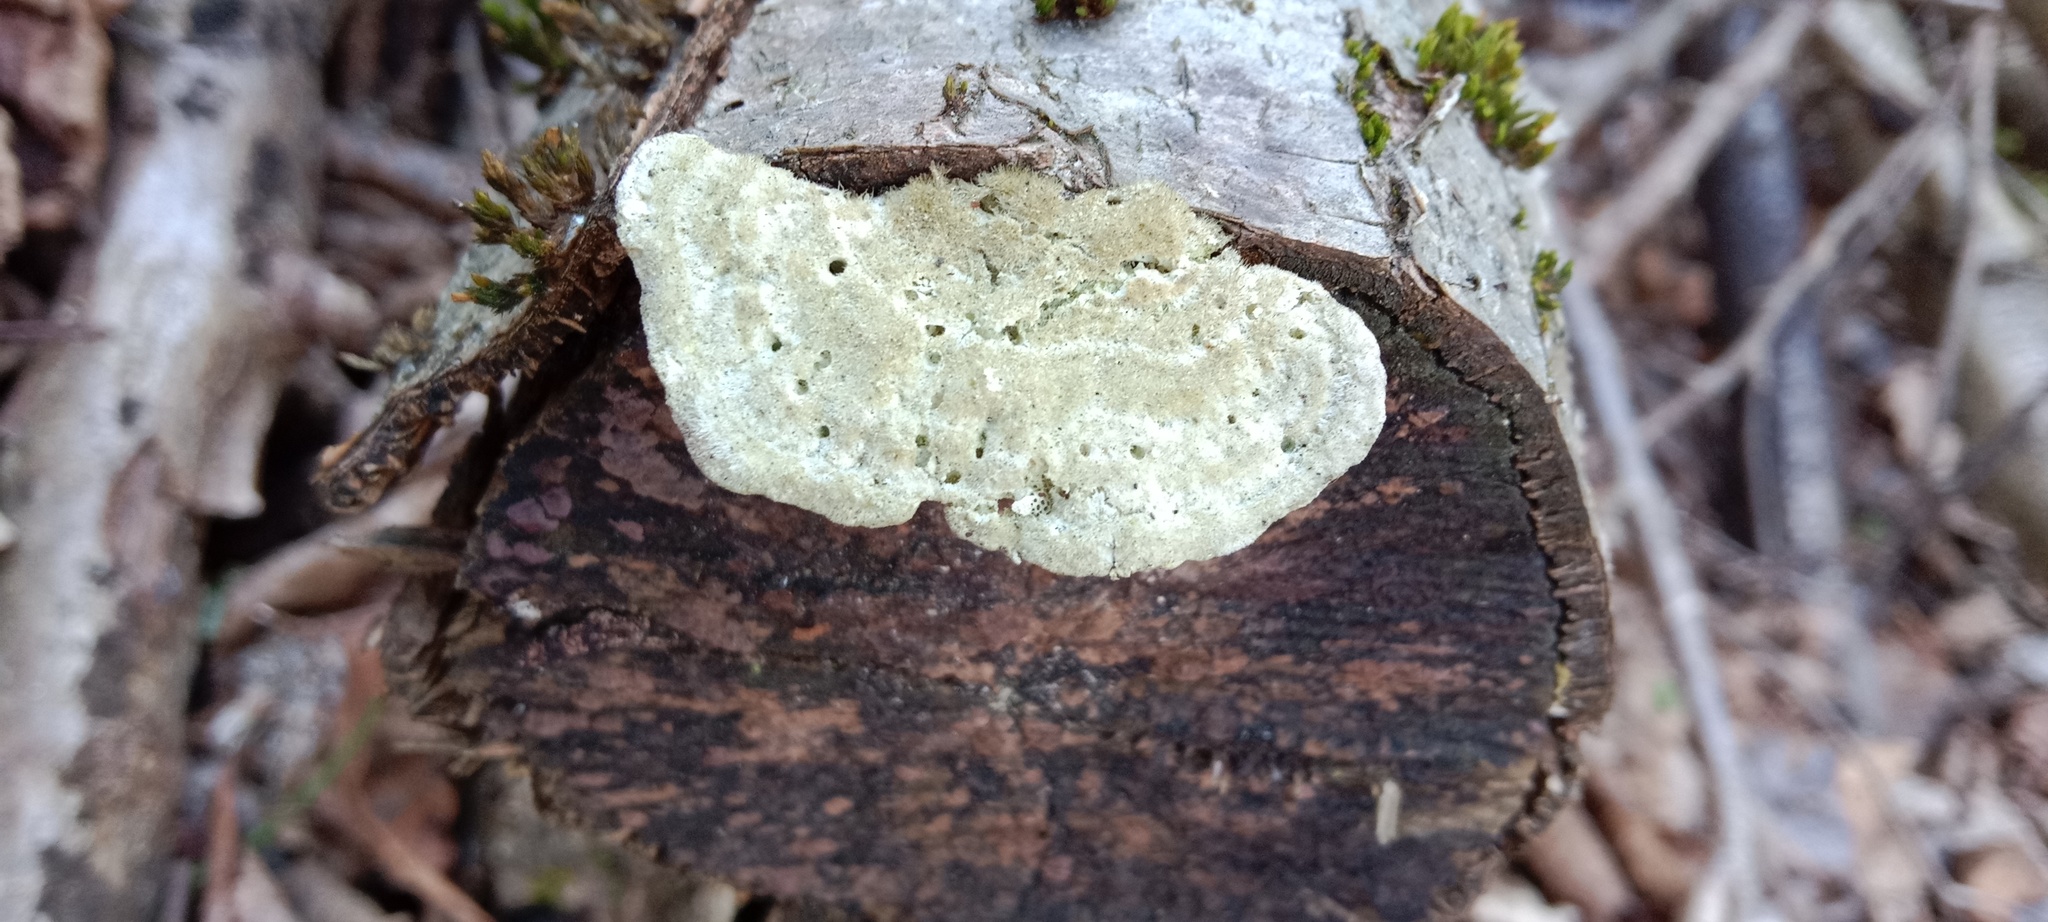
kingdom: Fungi
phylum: Basidiomycota
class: Agaricomycetes
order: Polyporales
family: Polyporaceae
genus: Trametes
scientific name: Trametes hirsuta
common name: Hairy bracket
